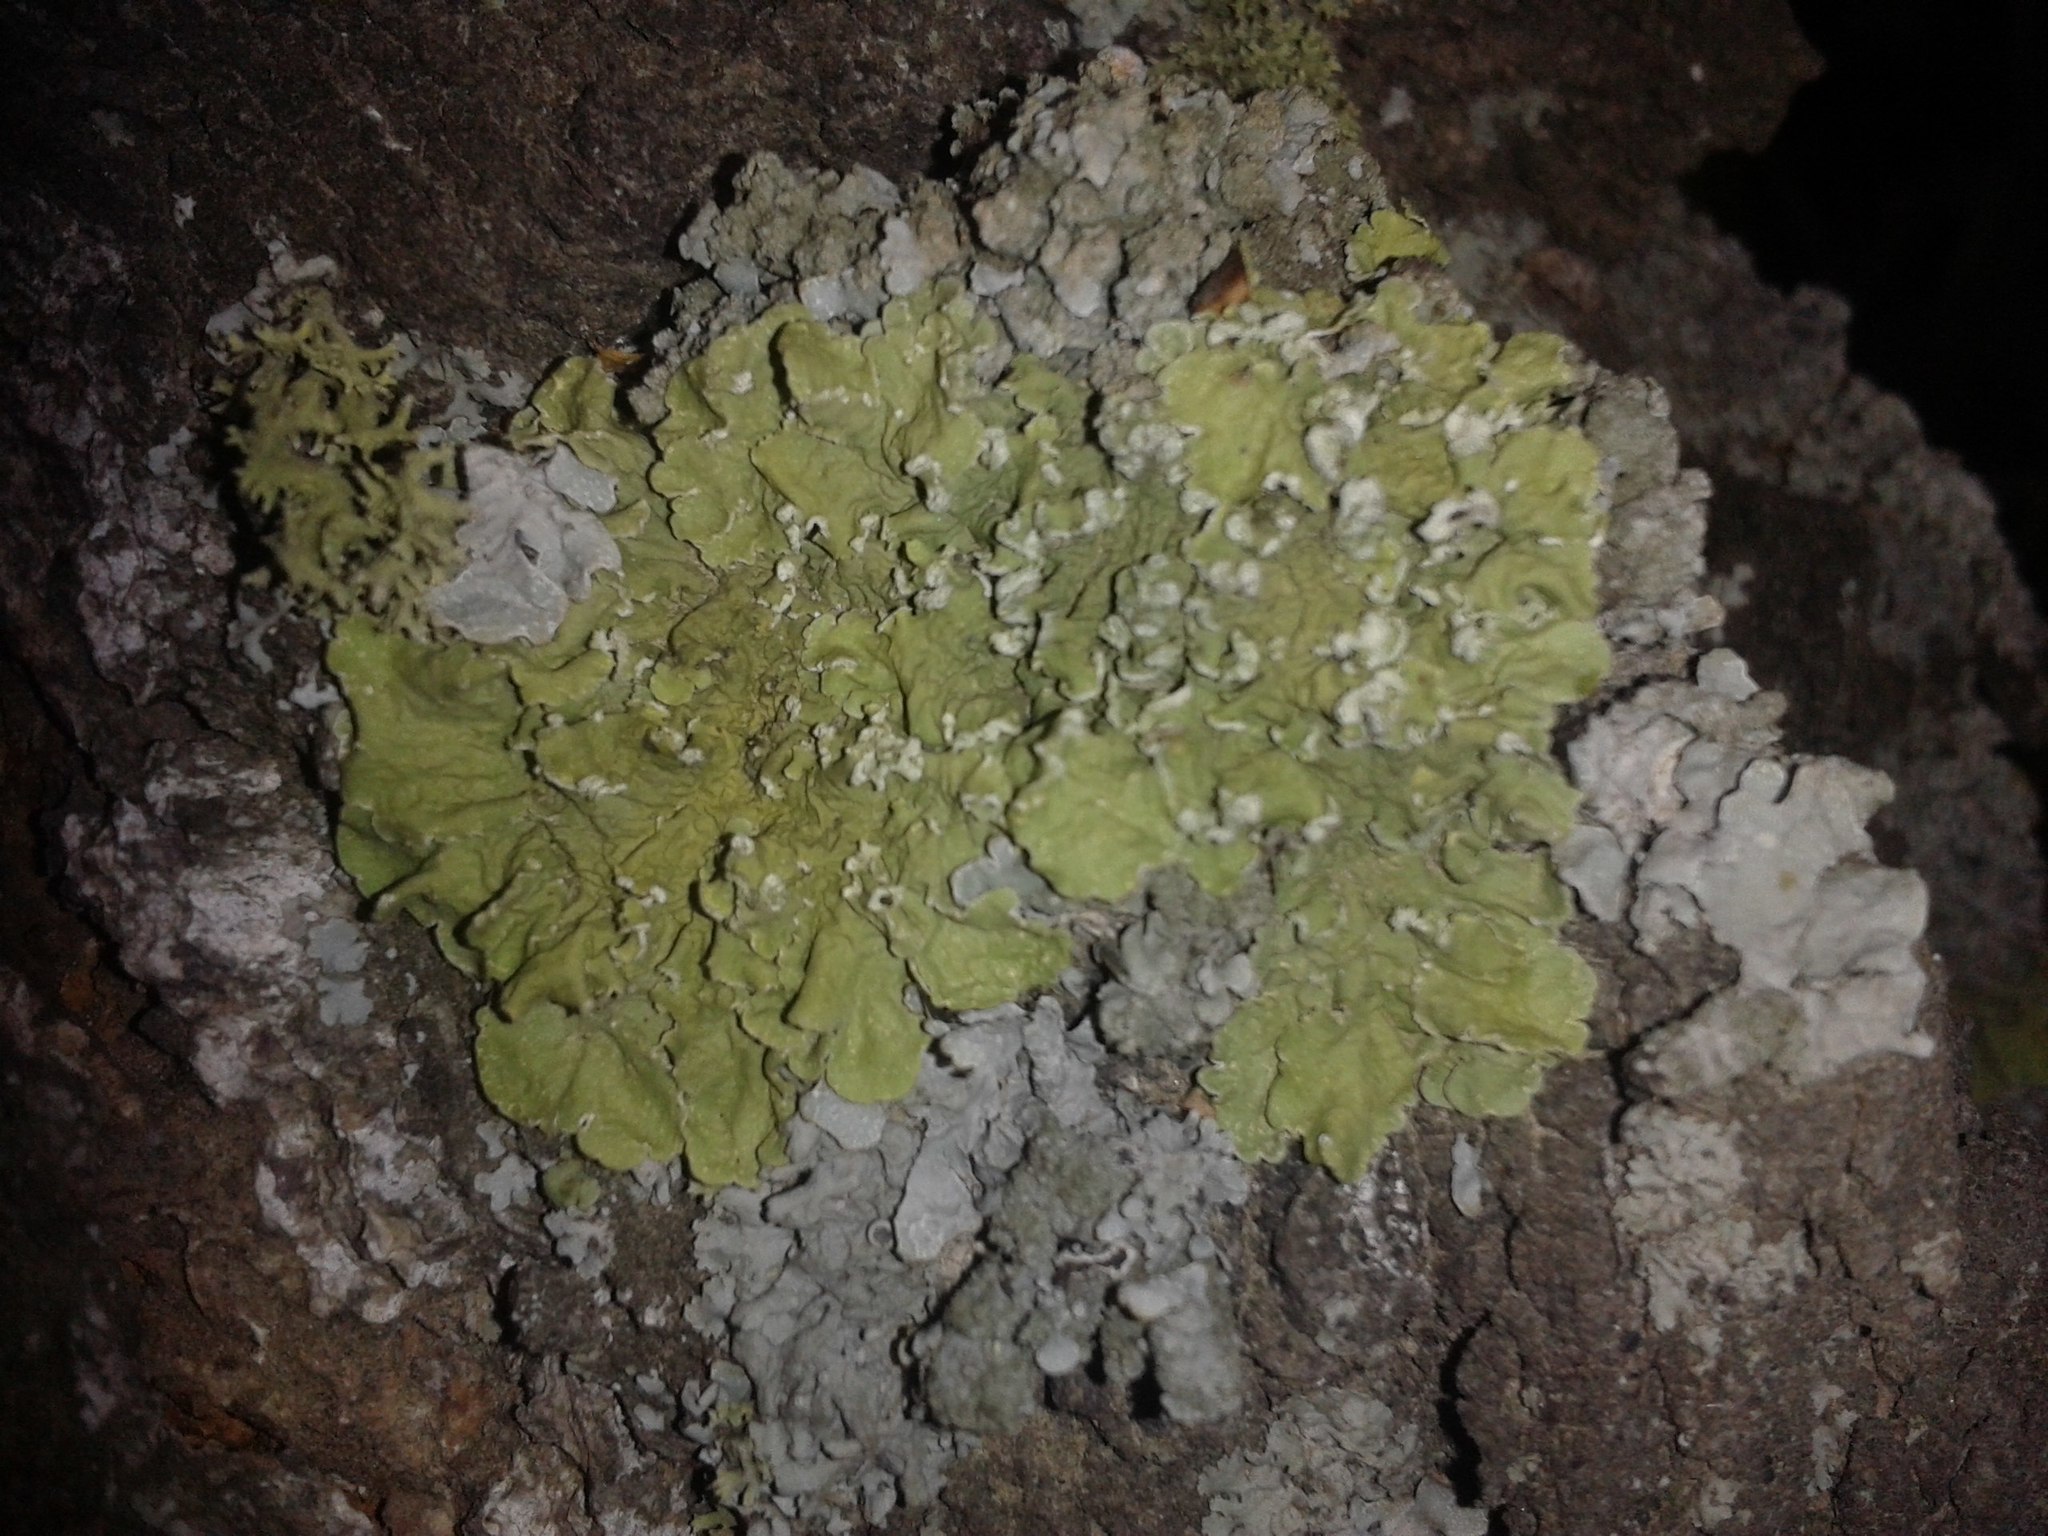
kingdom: Fungi
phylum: Ascomycota
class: Lecanoromycetes
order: Lecanorales
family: Parmeliaceae
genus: Flavopunctelia
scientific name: Flavopunctelia soredica
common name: Powder-edged speckled greenshield
